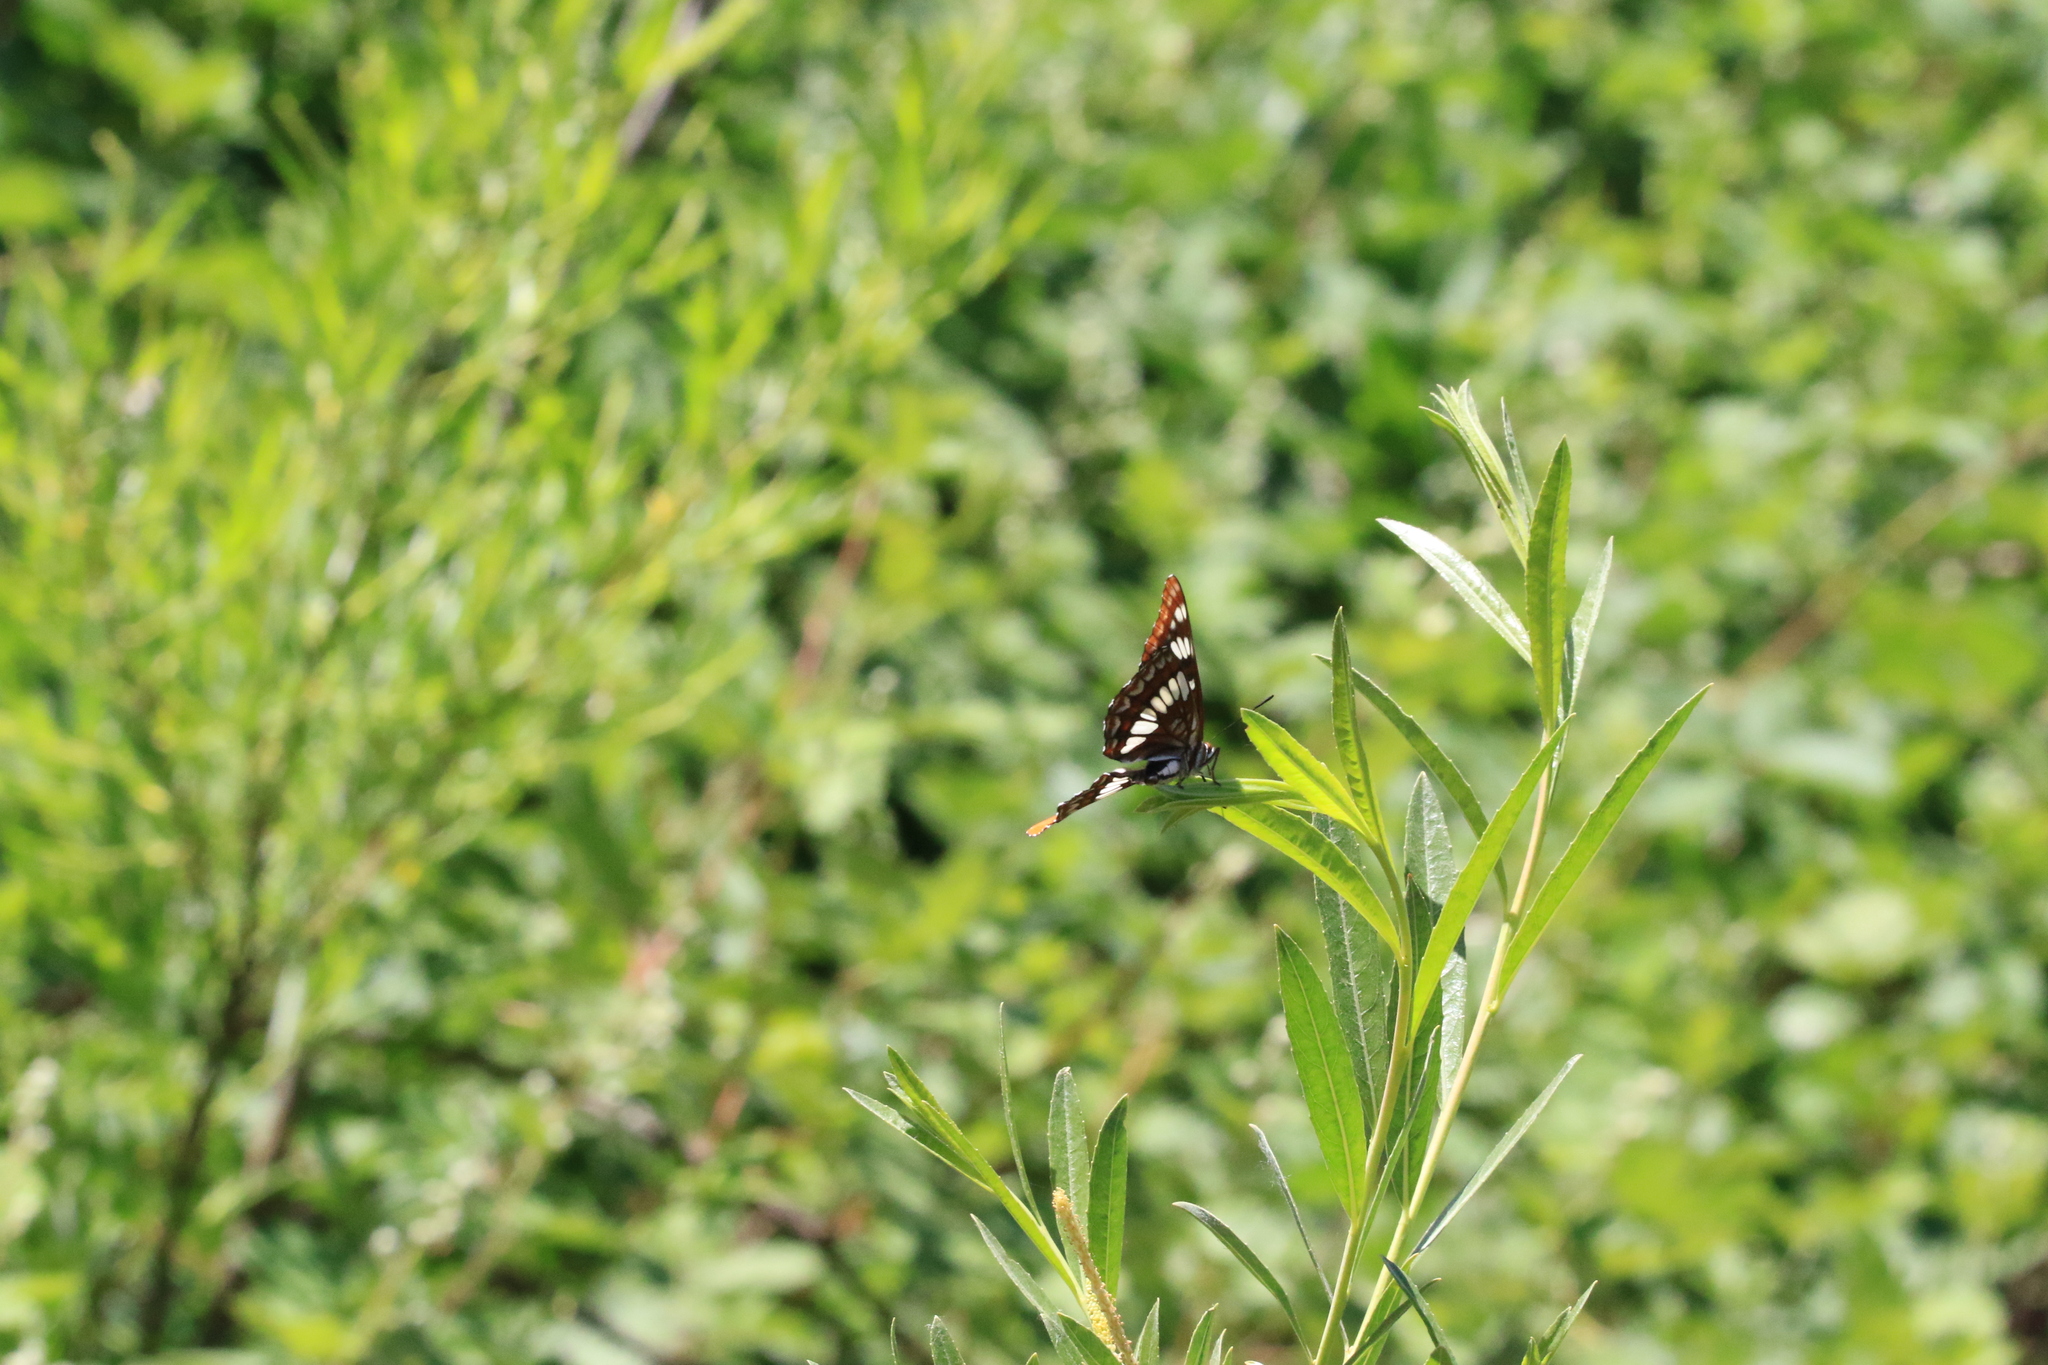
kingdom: Animalia
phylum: Arthropoda
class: Insecta
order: Lepidoptera
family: Nymphalidae
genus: Limenitis
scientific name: Limenitis lorquini
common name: Lorquin's admiral
